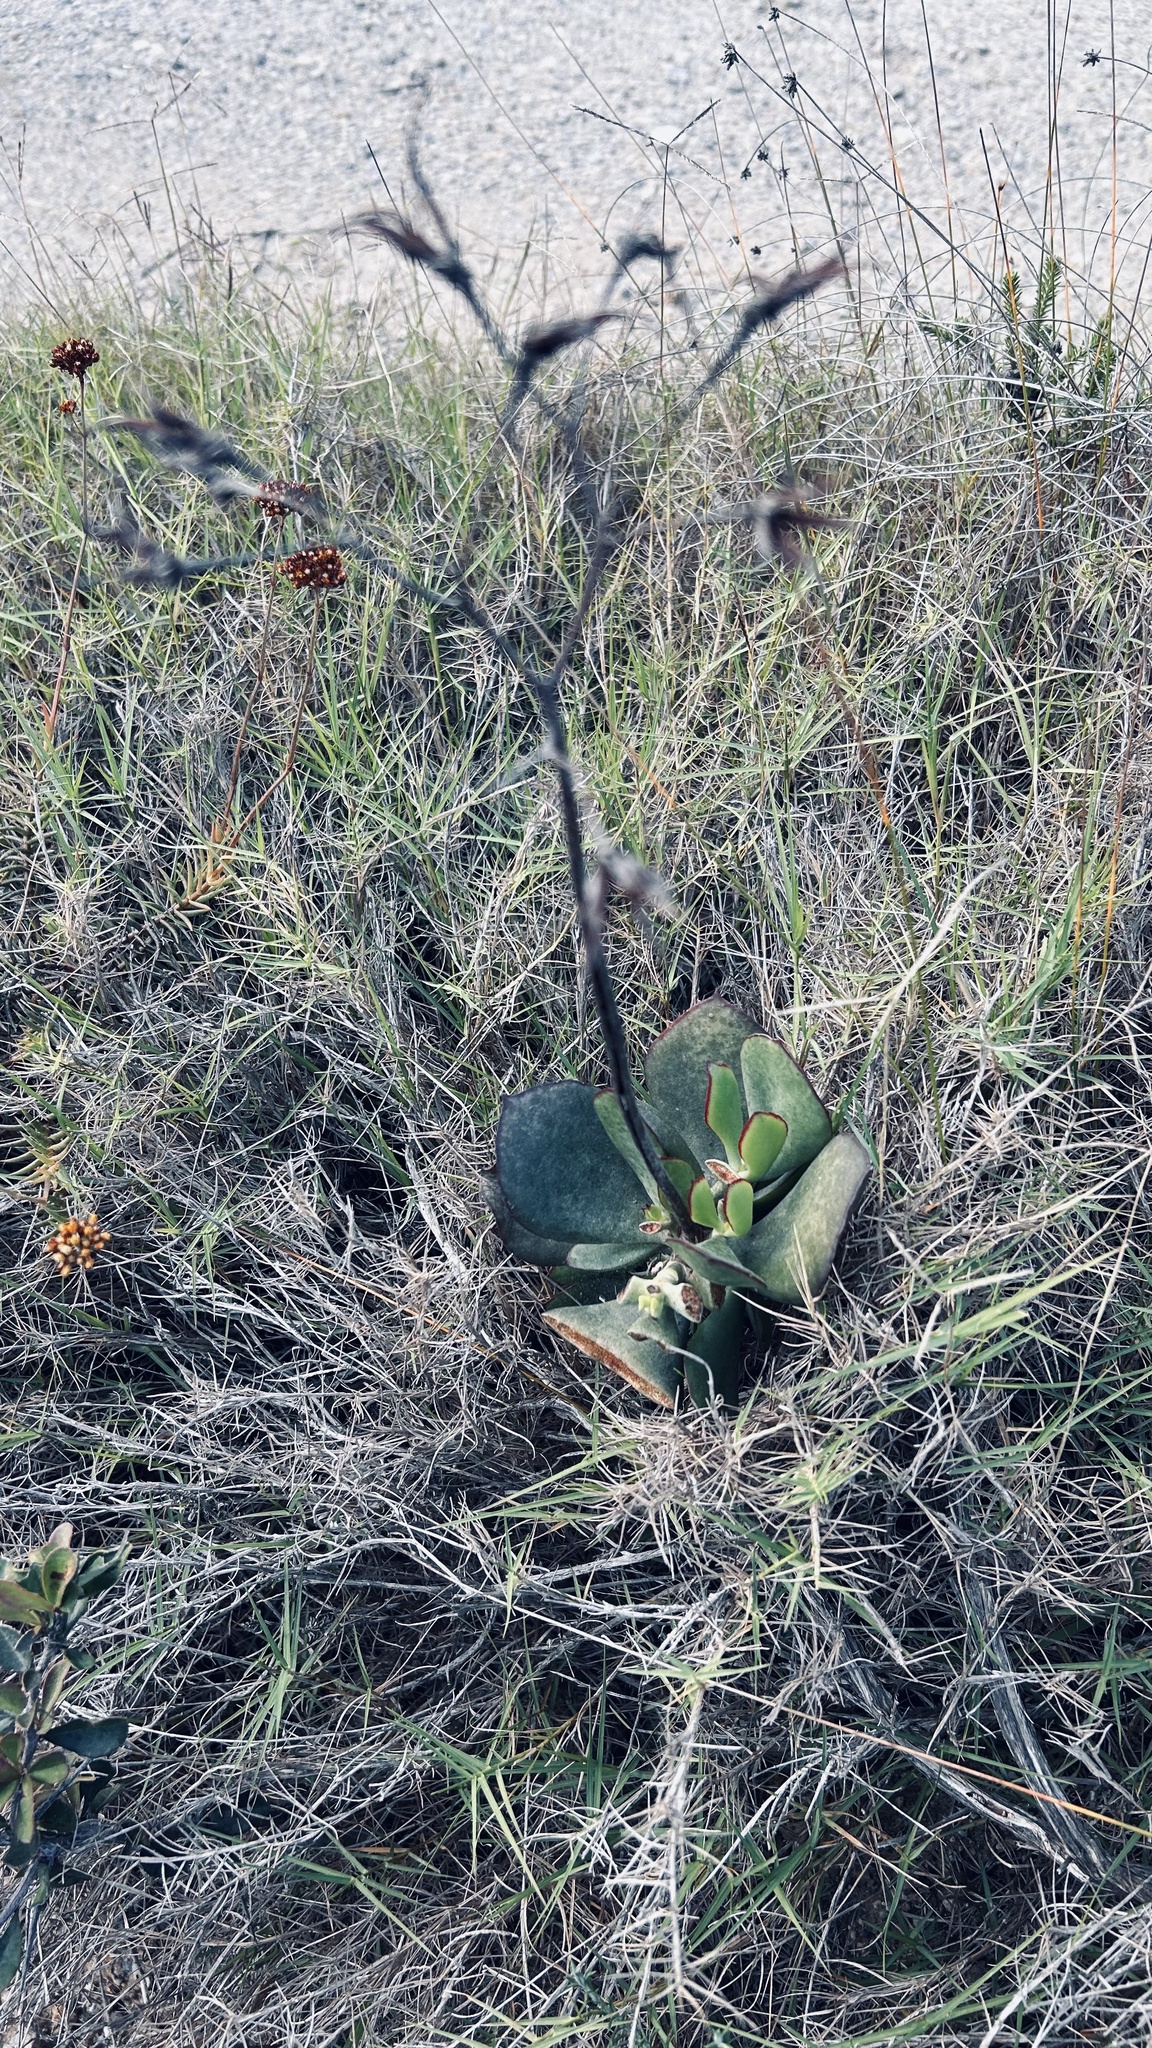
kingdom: Plantae
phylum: Tracheophyta
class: Magnoliopsida
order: Saxifragales
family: Crassulaceae
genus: Cotyledon
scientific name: Cotyledon orbiculata
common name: Pig's ear
